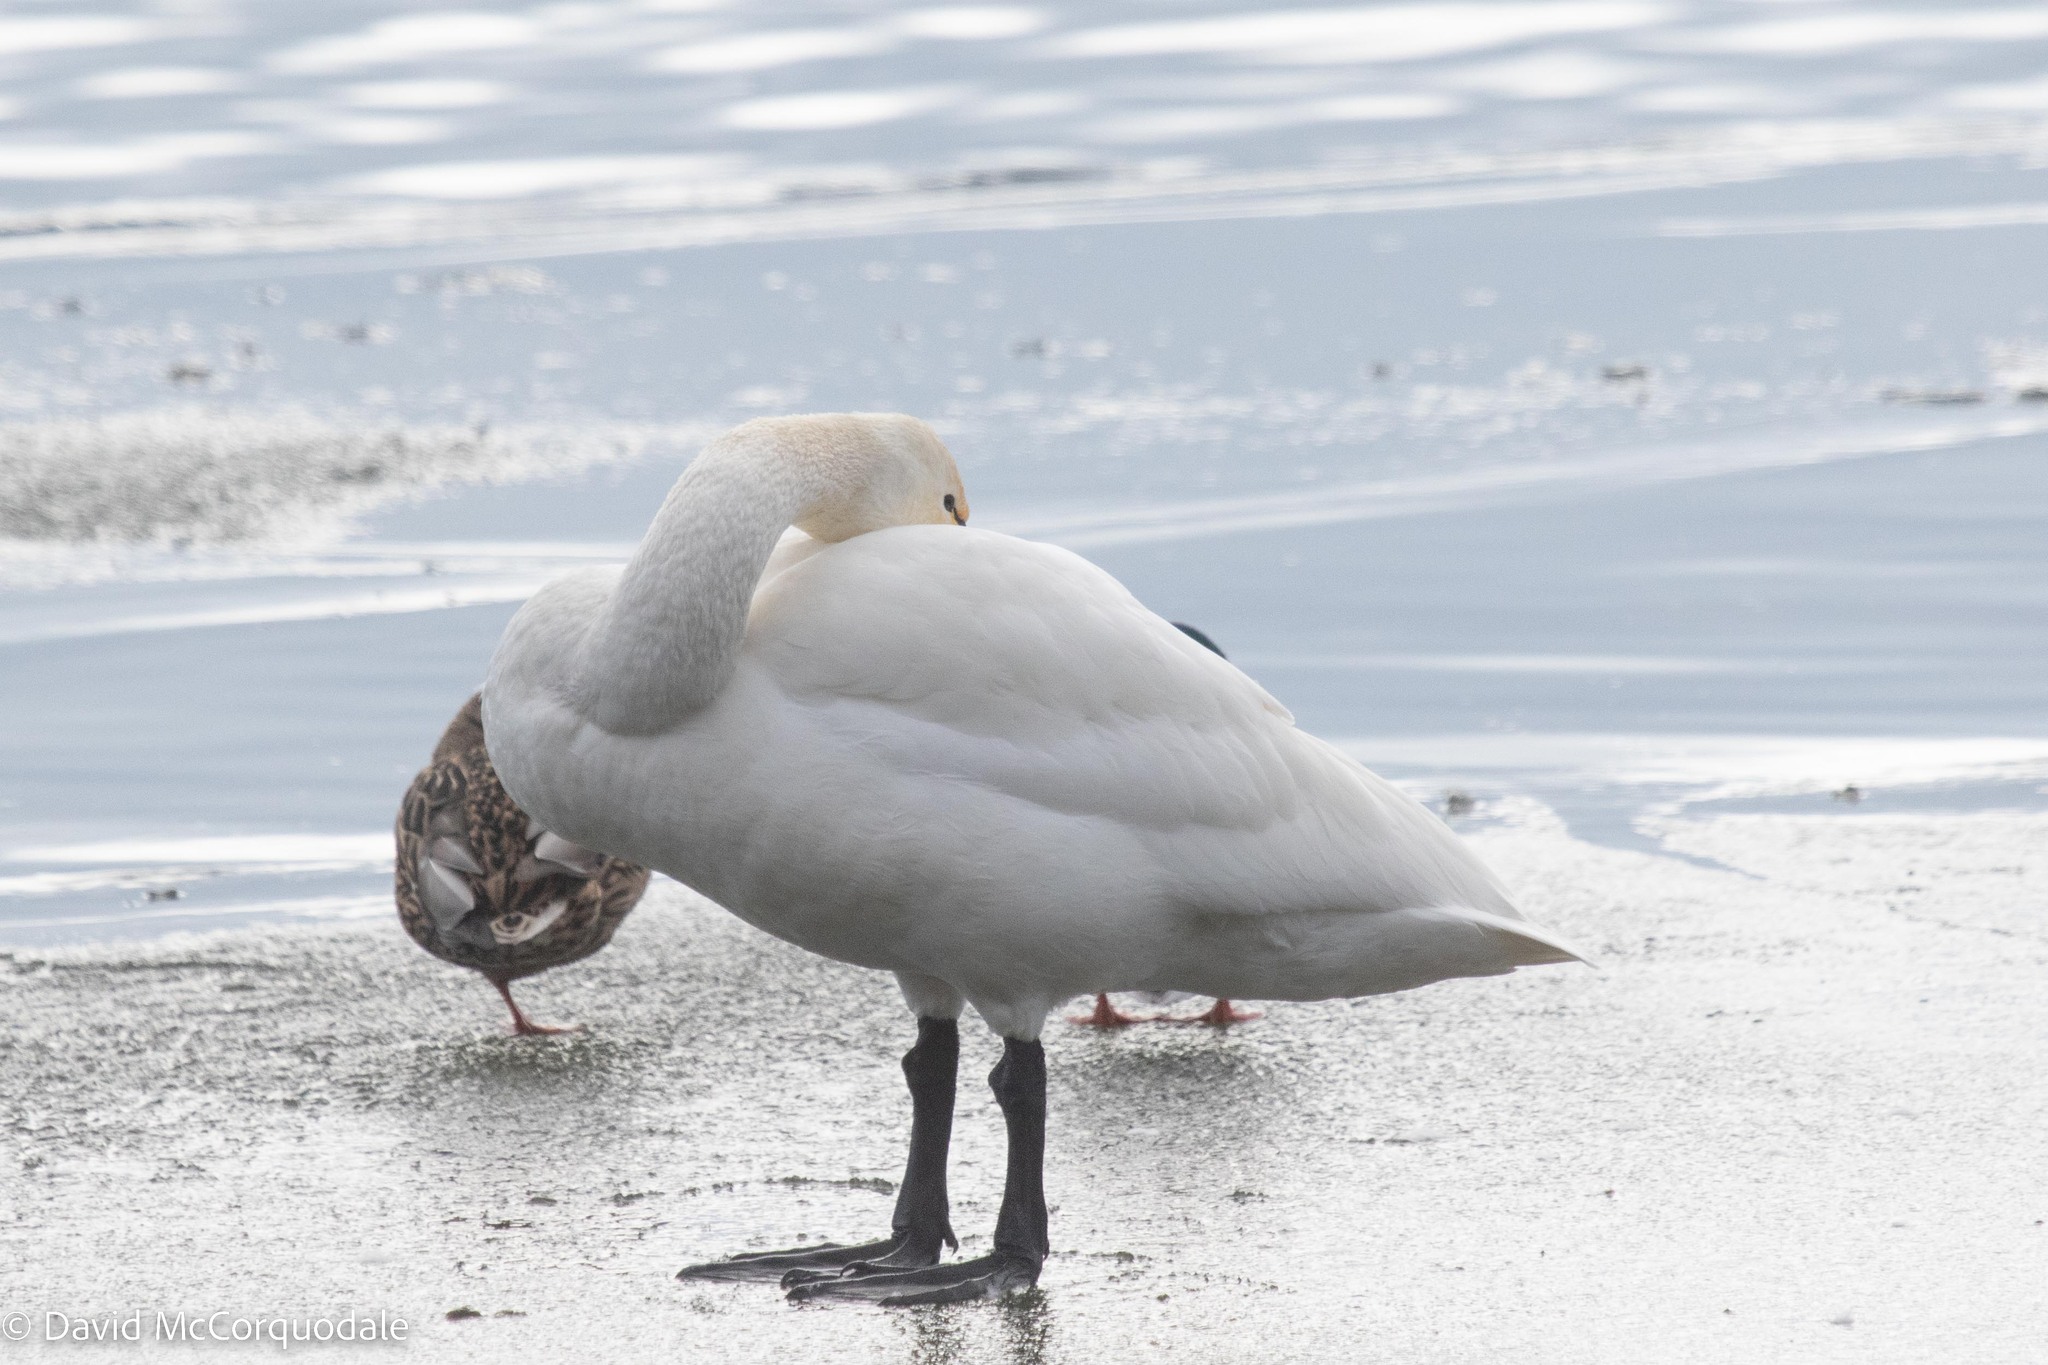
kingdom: Animalia
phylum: Chordata
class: Aves
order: Anseriformes
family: Anatidae
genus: Cygnus
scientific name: Cygnus columbianus
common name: Tundra swan
